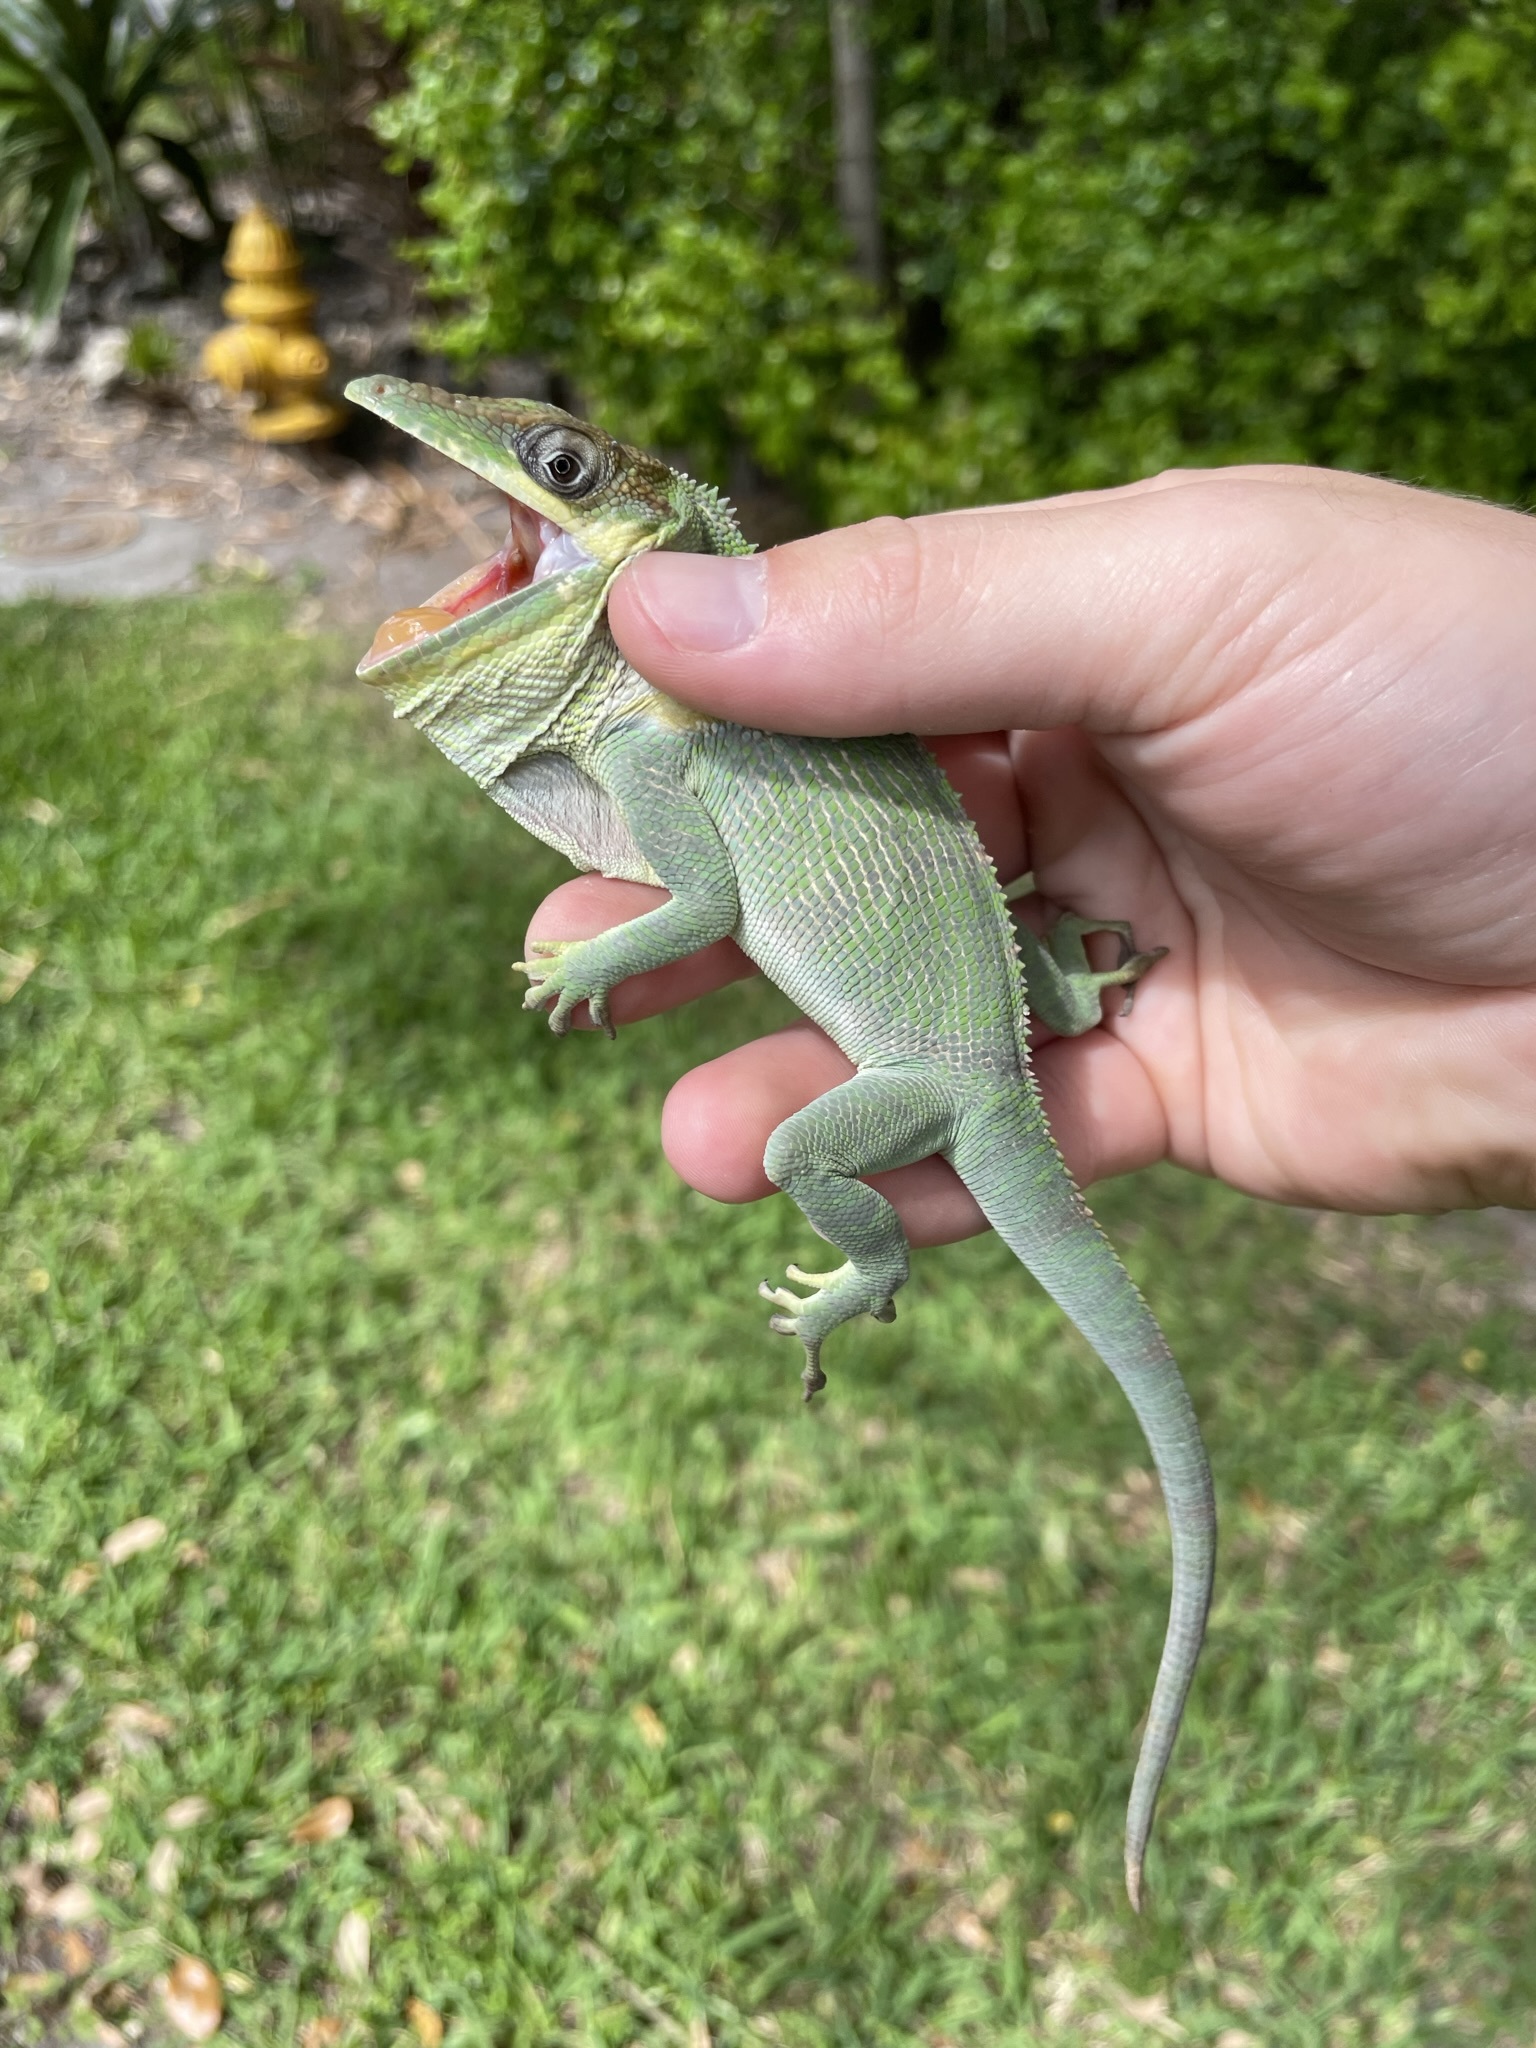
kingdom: Animalia
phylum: Chordata
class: Squamata
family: Dactyloidae
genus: Anolis
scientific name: Anolis equestris
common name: Knight anole
